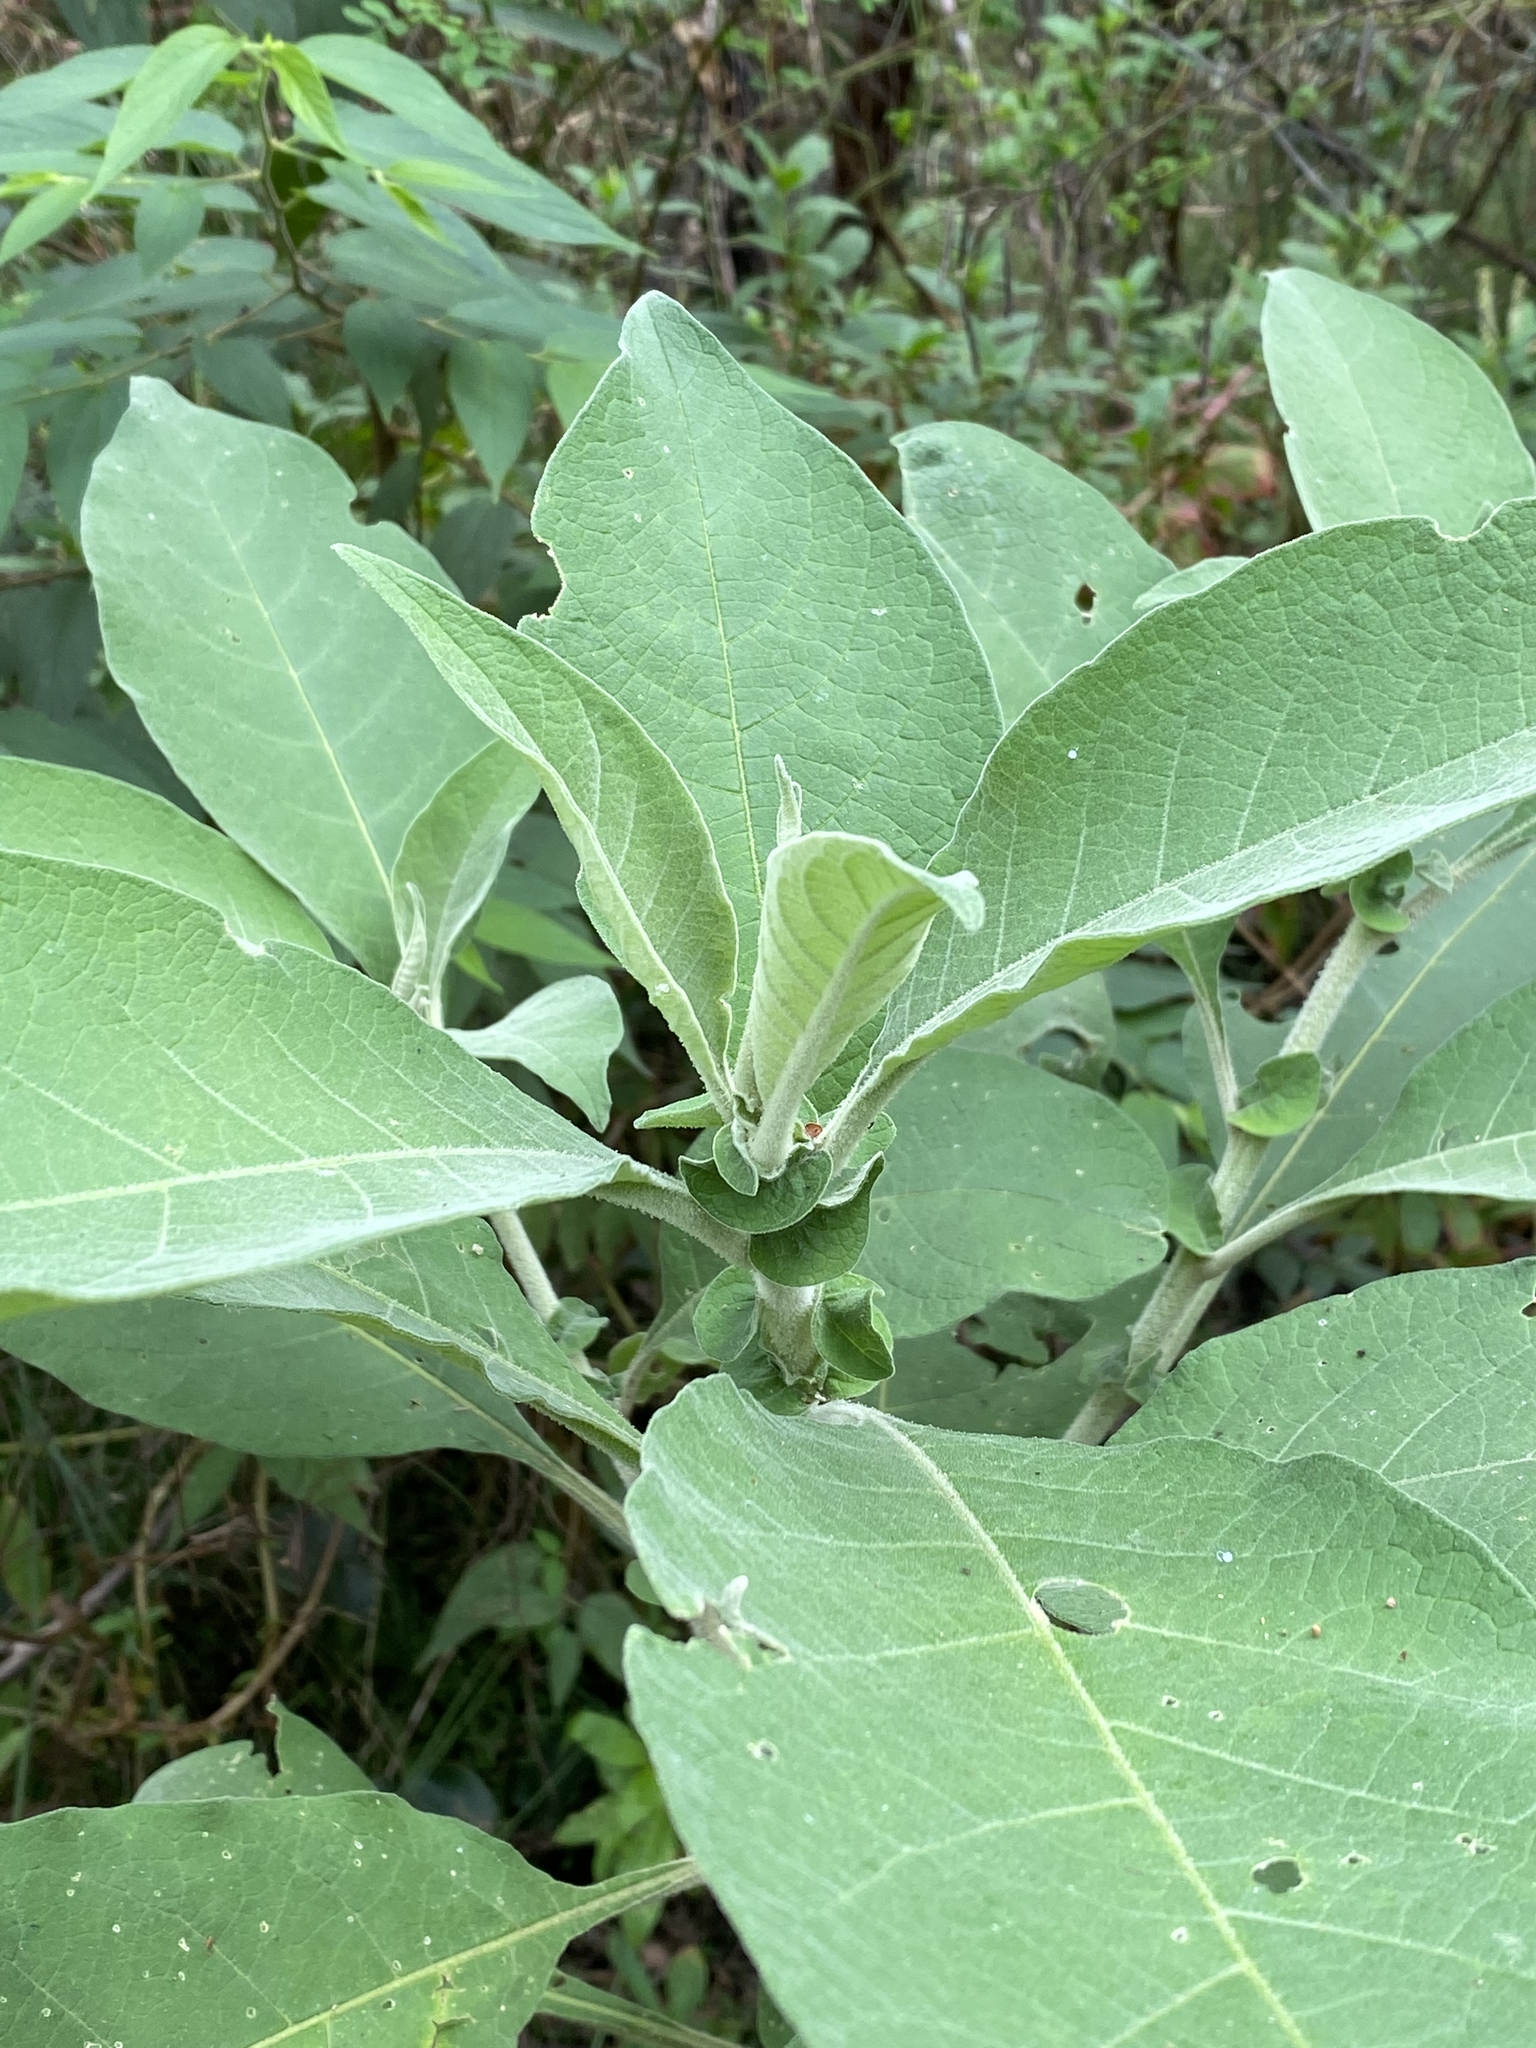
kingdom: Plantae
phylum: Tracheophyta
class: Magnoliopsida
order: Solanales
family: Solanaceae
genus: Solanum
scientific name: Solanum mauritianum
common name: Earleaf nightshade
